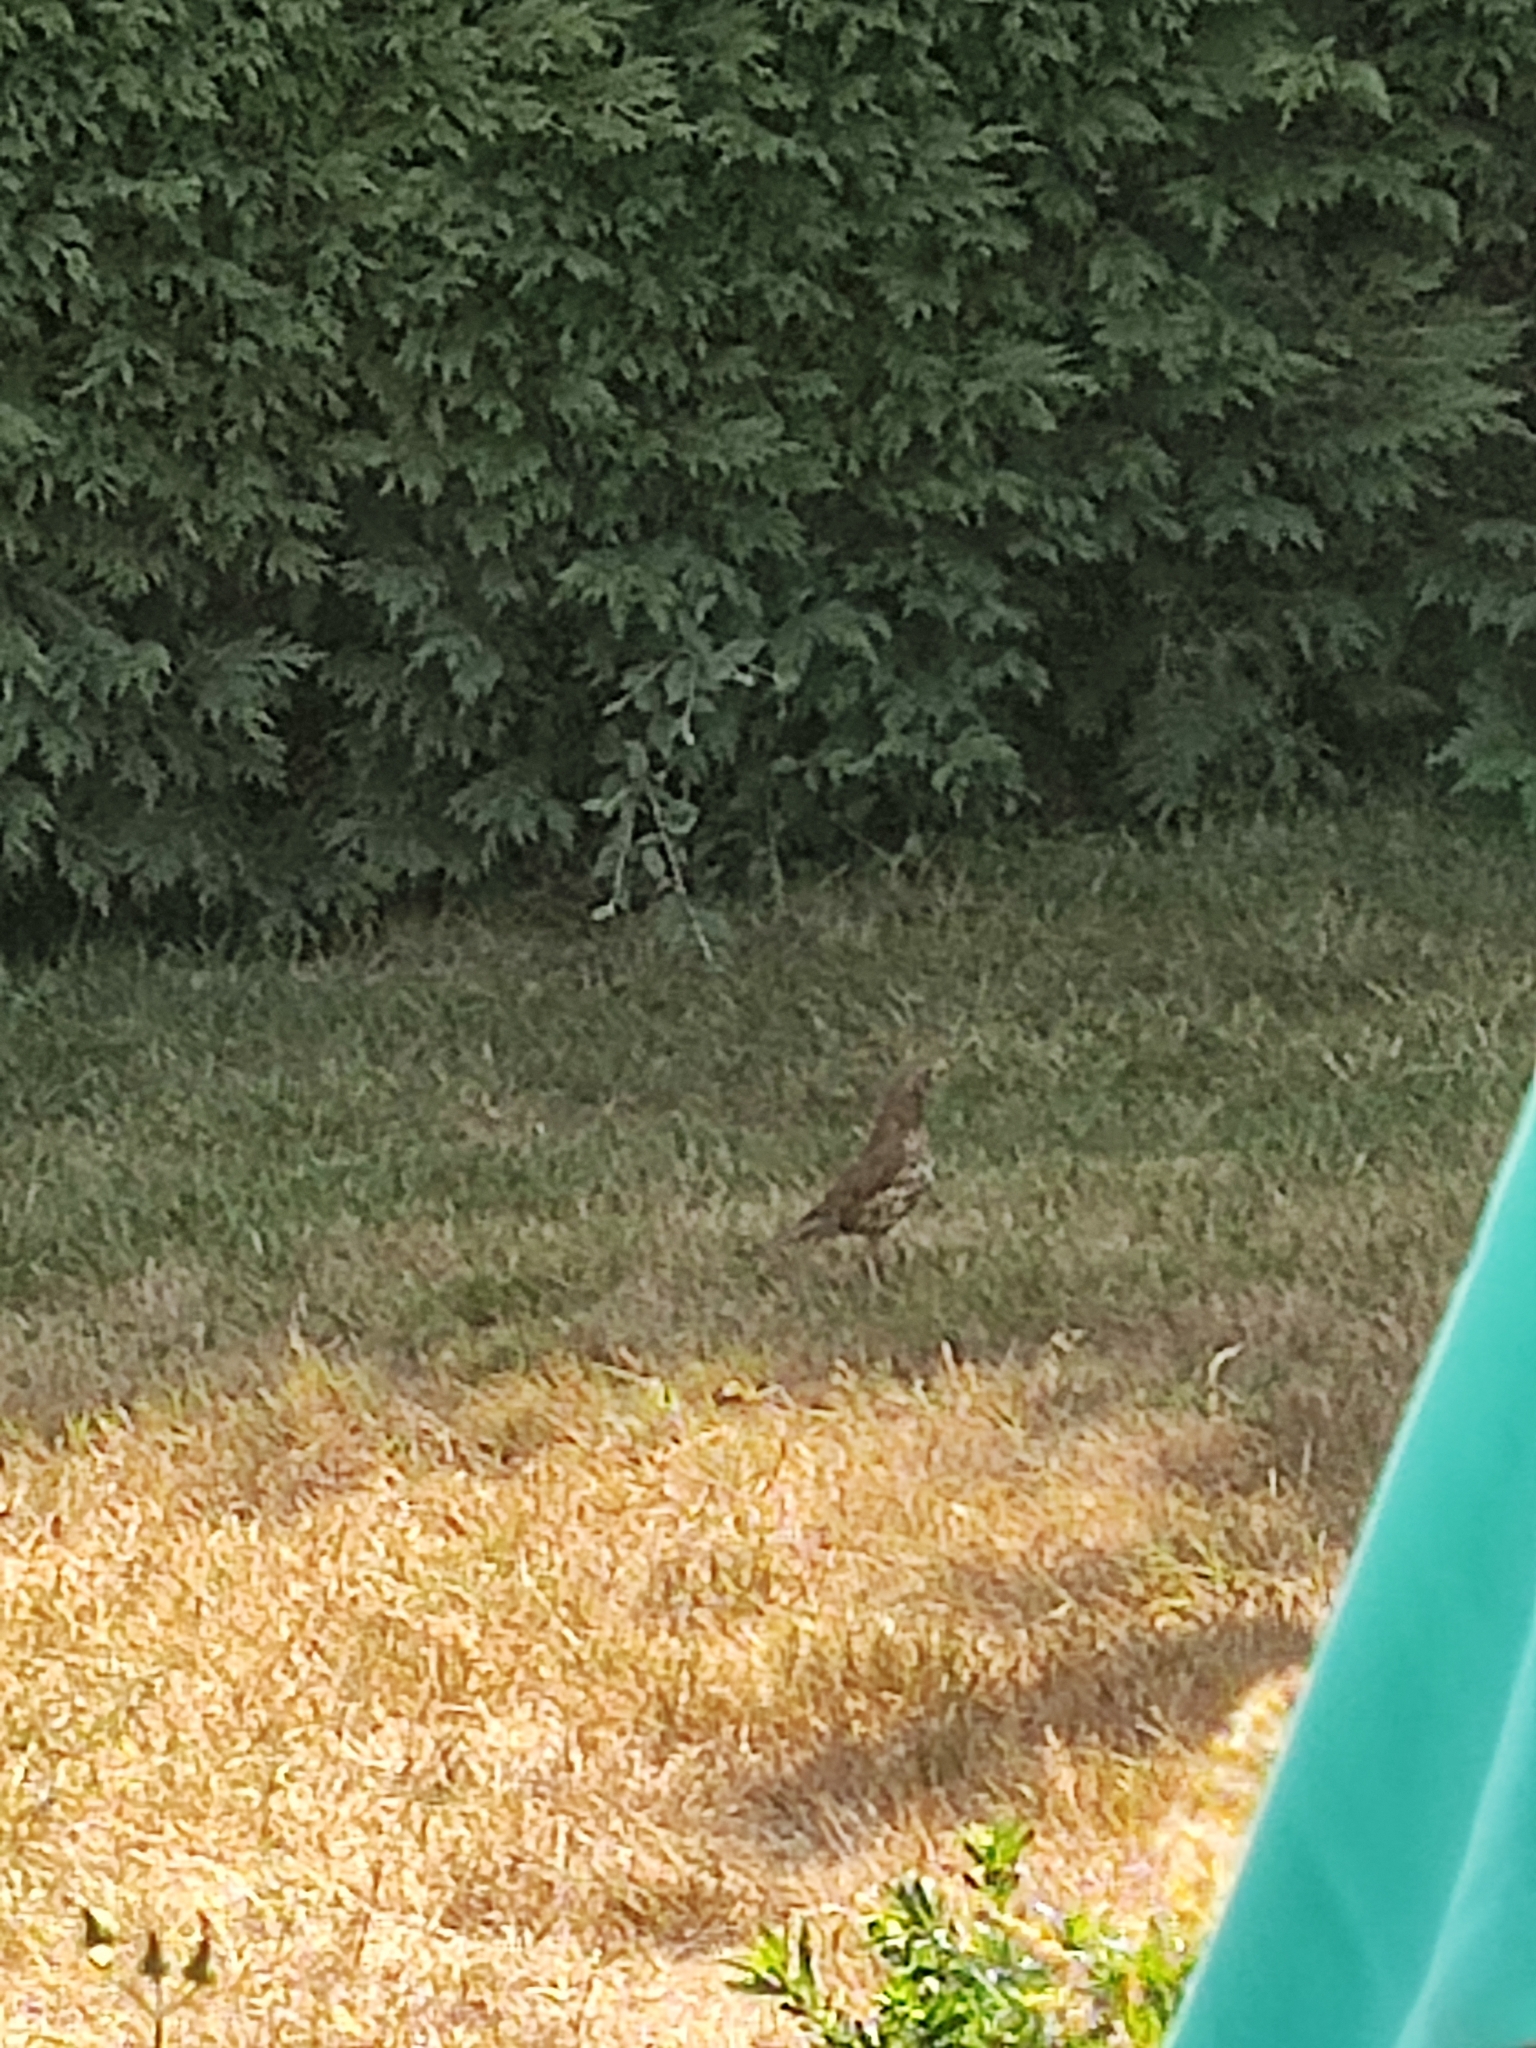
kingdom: Animalia
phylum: Chordata
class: Aves
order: Passeriformes
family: Turdidae
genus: Turdus
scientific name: Turdus philomelos
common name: Song thrush
